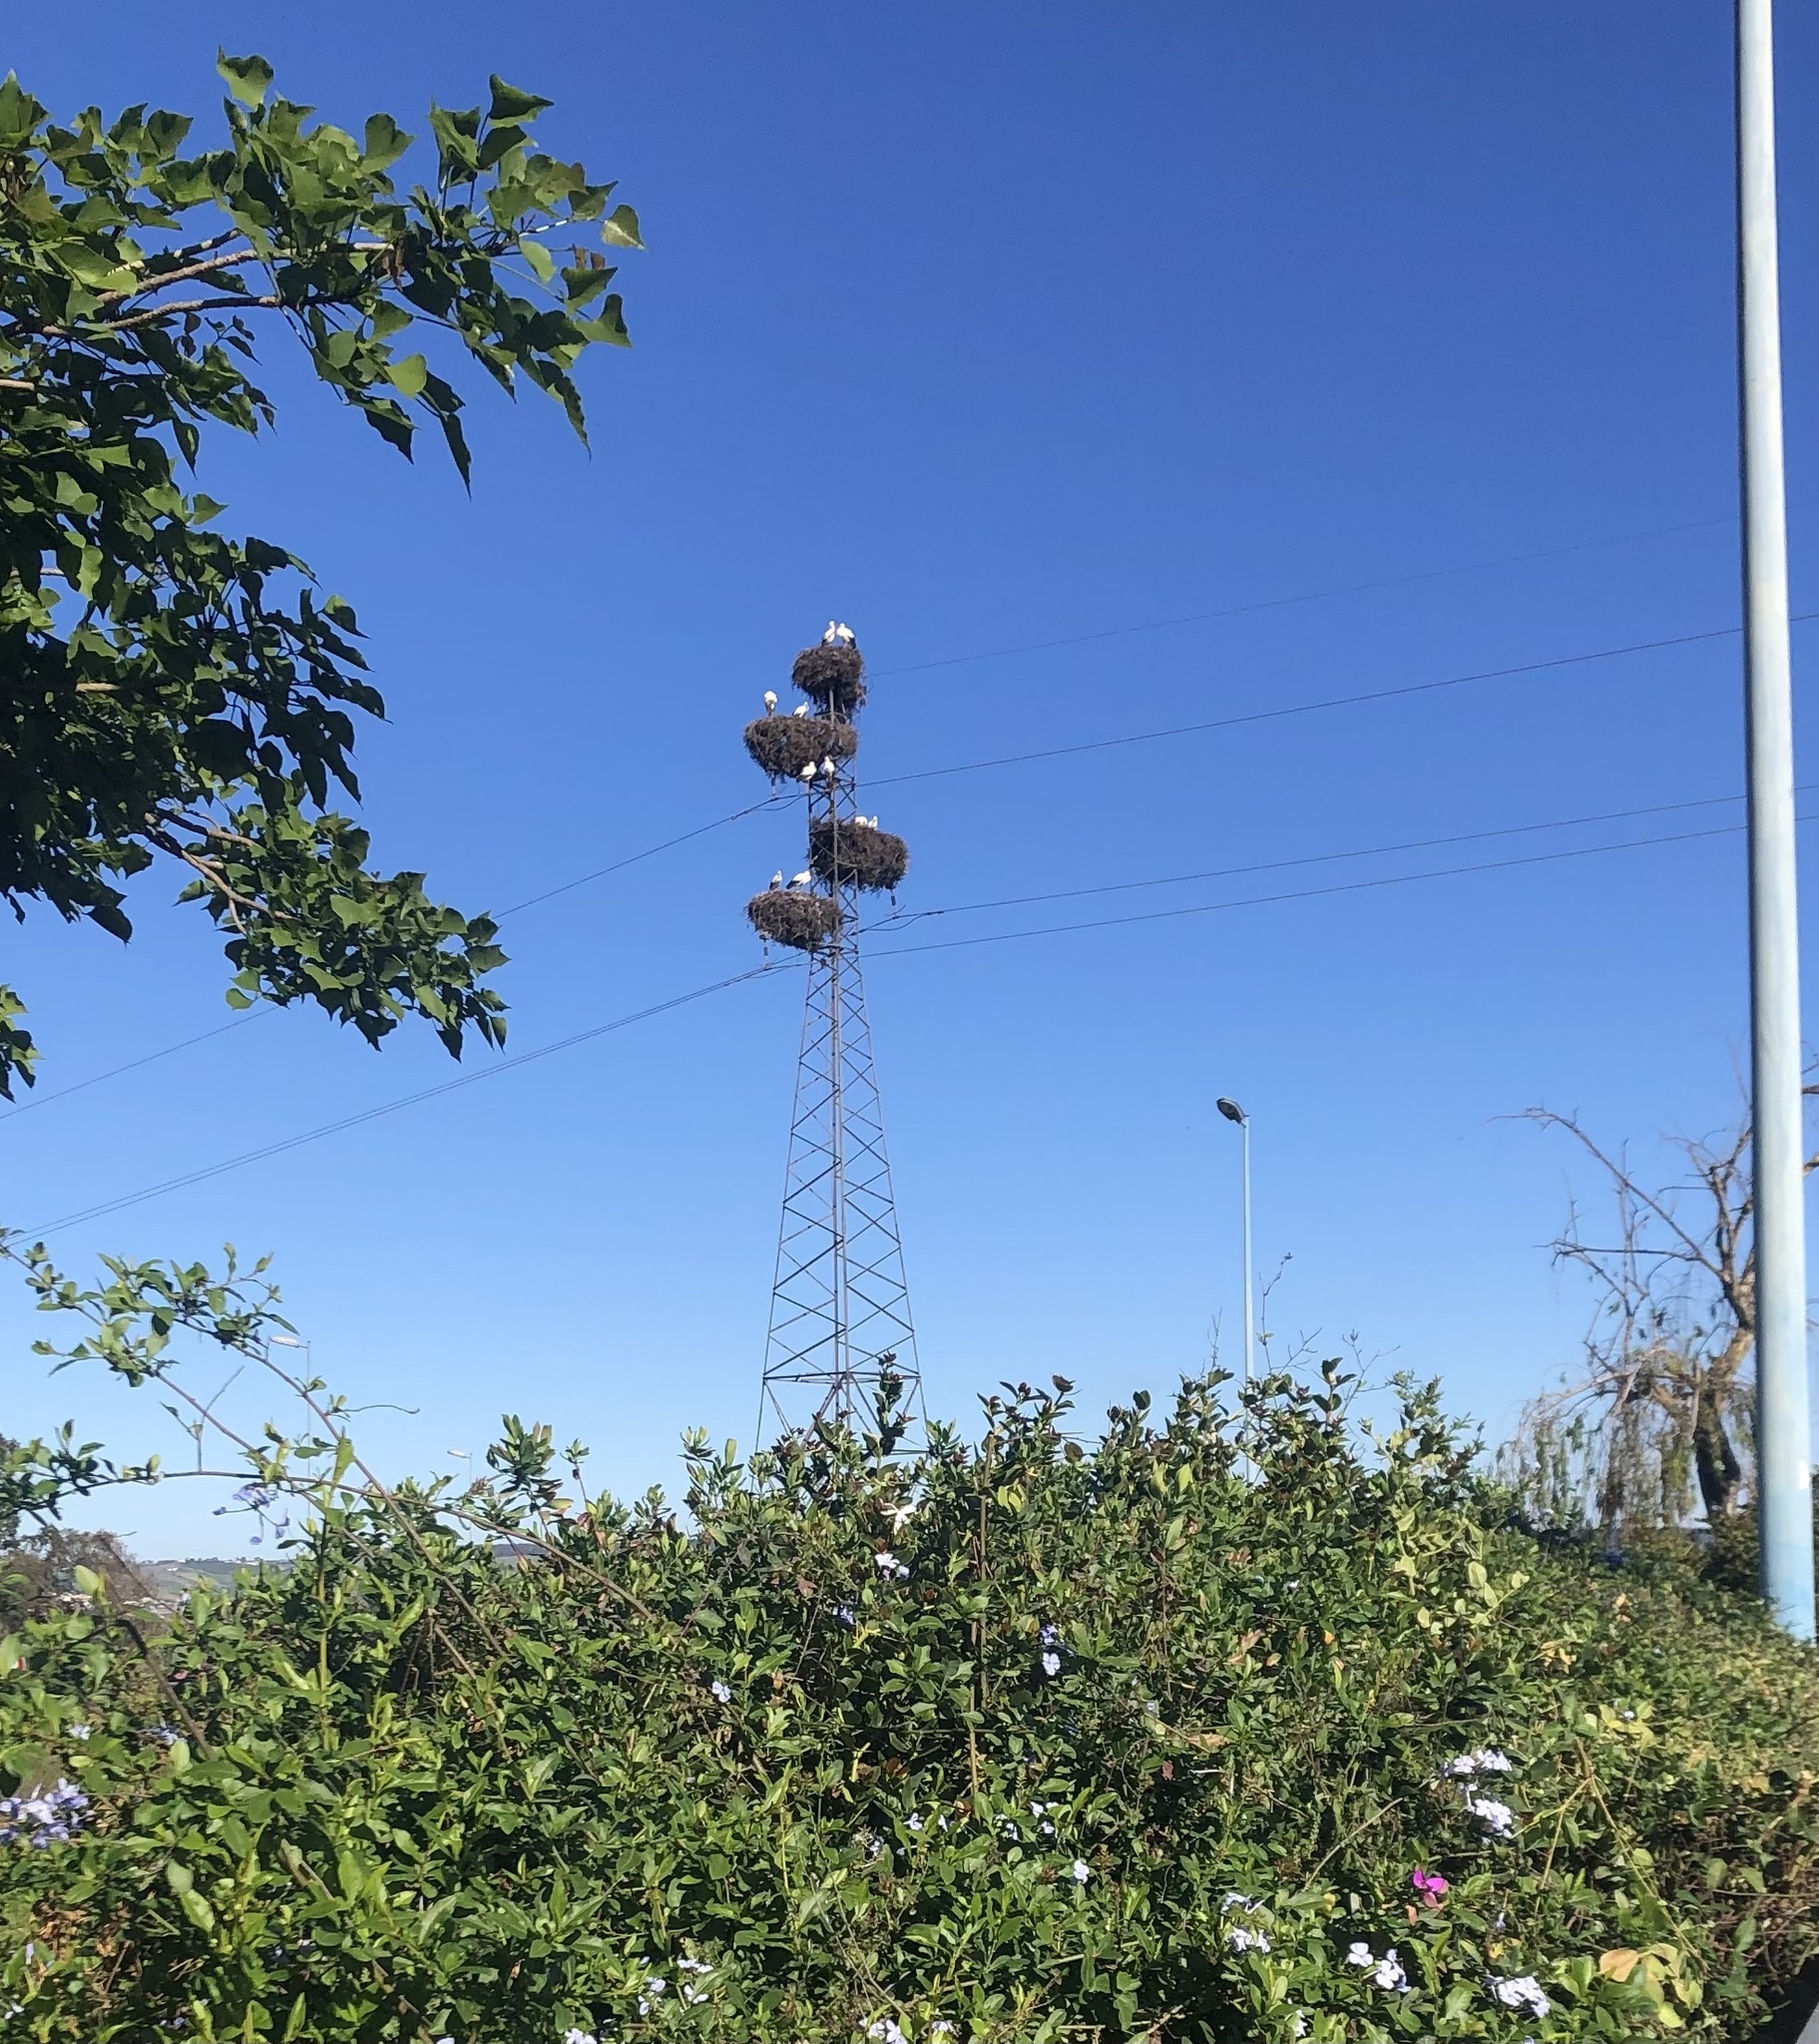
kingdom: Animalia
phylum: Chordata
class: Aves
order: Ciconiiformes
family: Ciconiidae
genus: Ciconia
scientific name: Ciconia ciconia
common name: White stork
